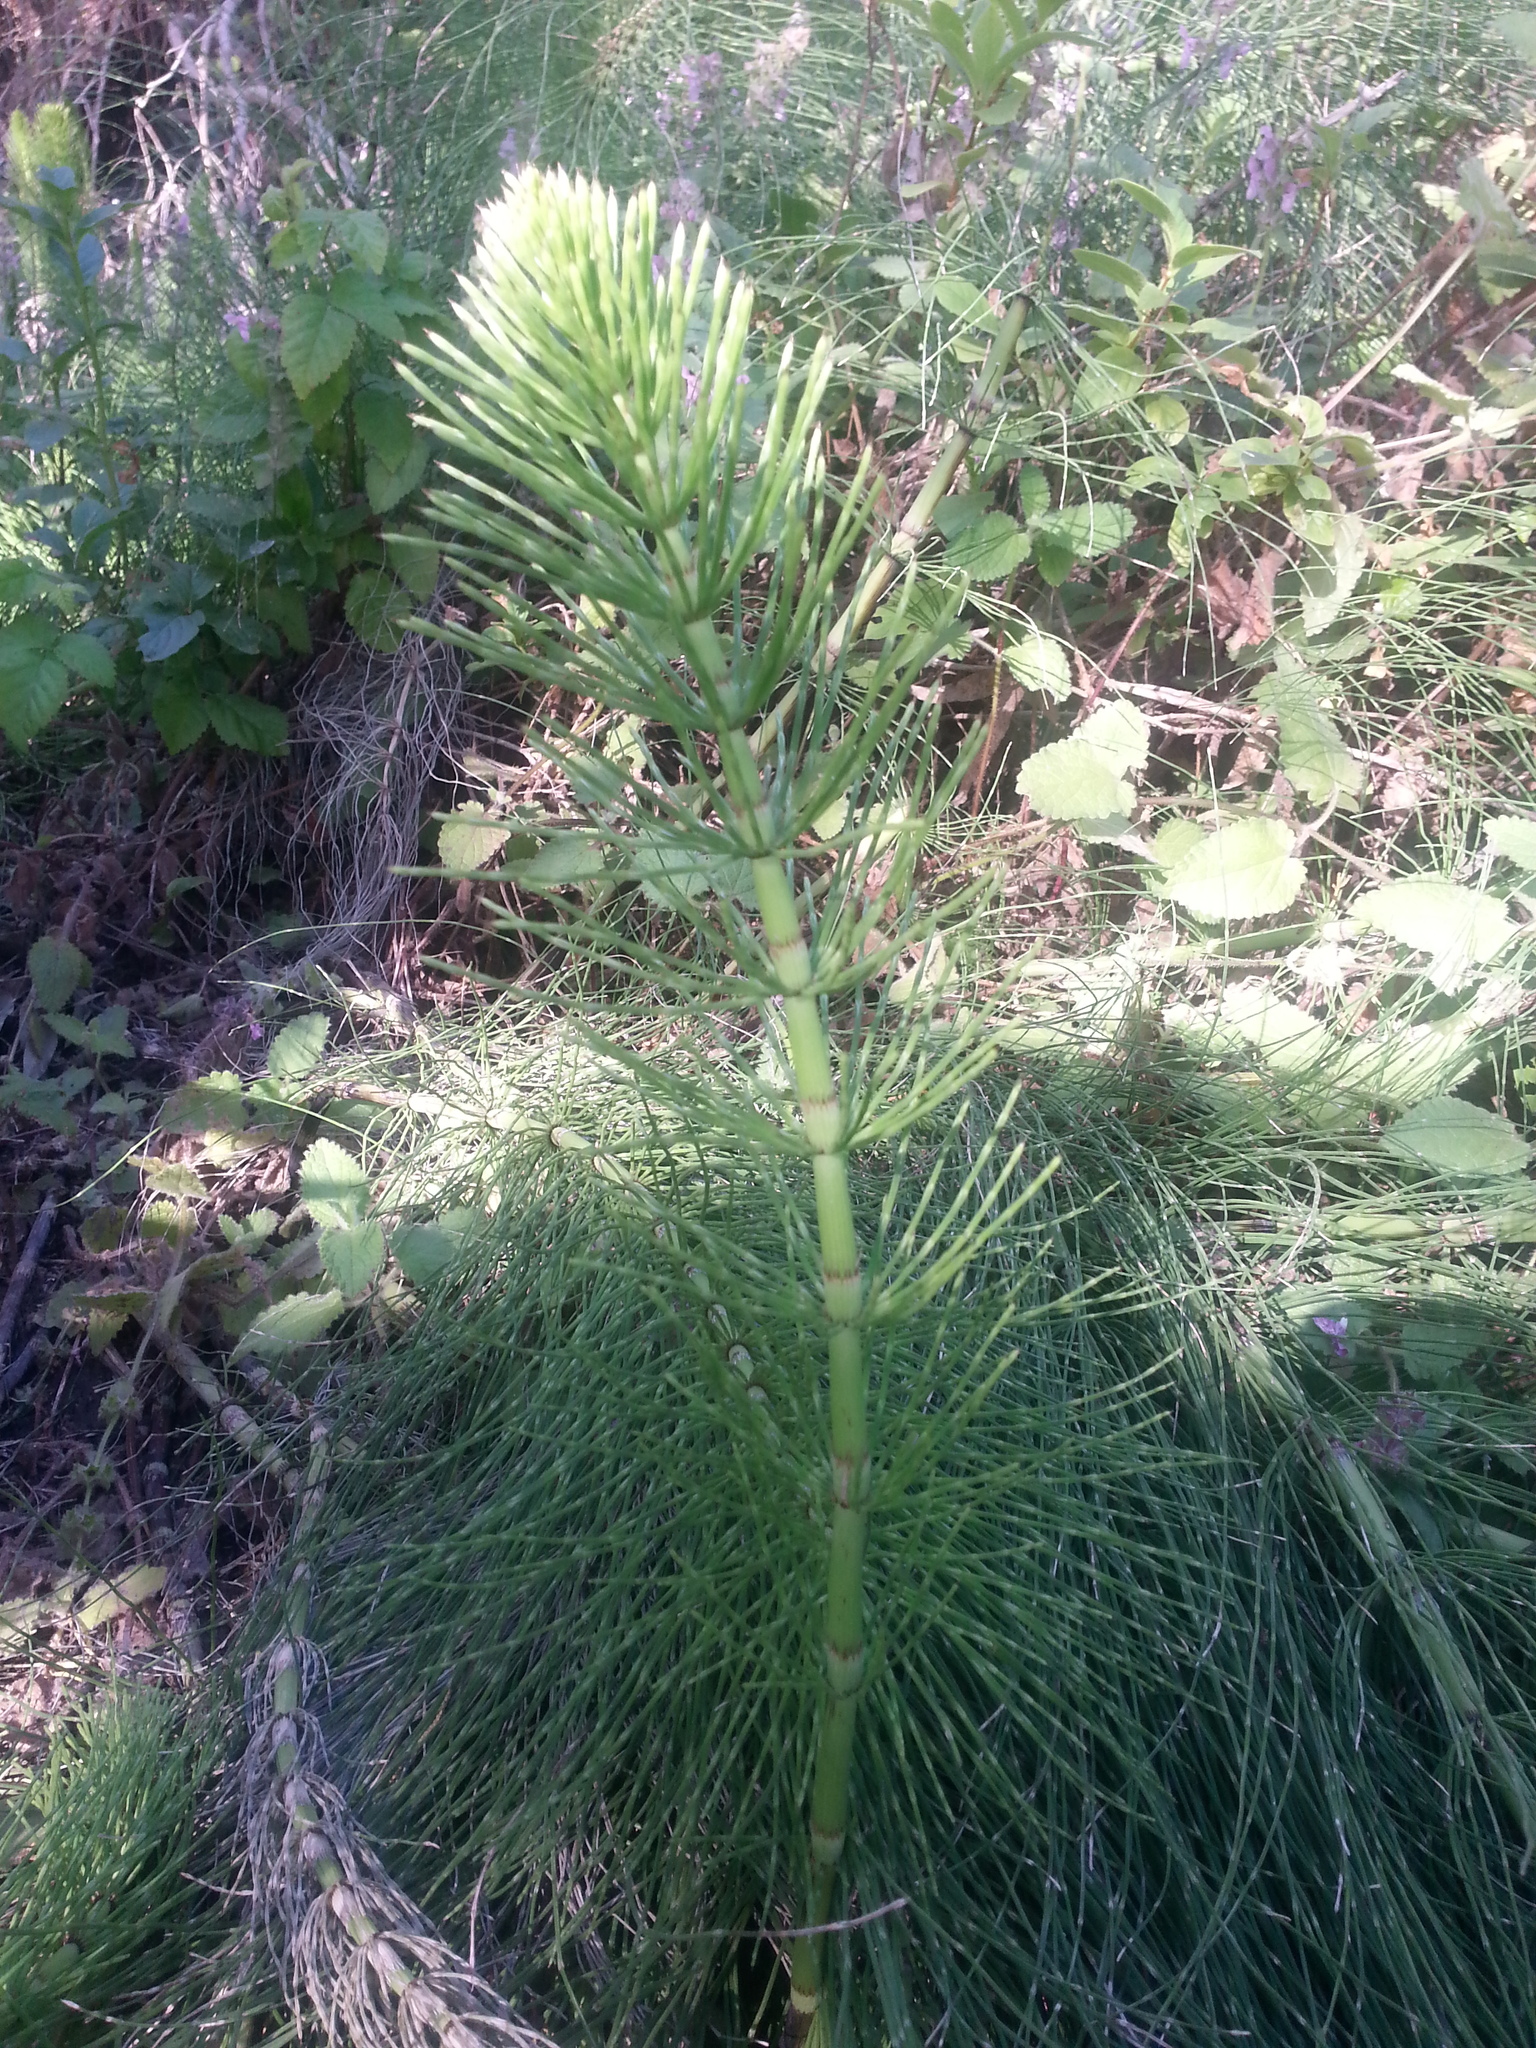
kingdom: Plantae
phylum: Tracheophyta
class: Polypodiopsida
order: Equisetales
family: Equisetaceae
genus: Equisetum
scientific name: Equisetum telmateia
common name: Great horsetail
